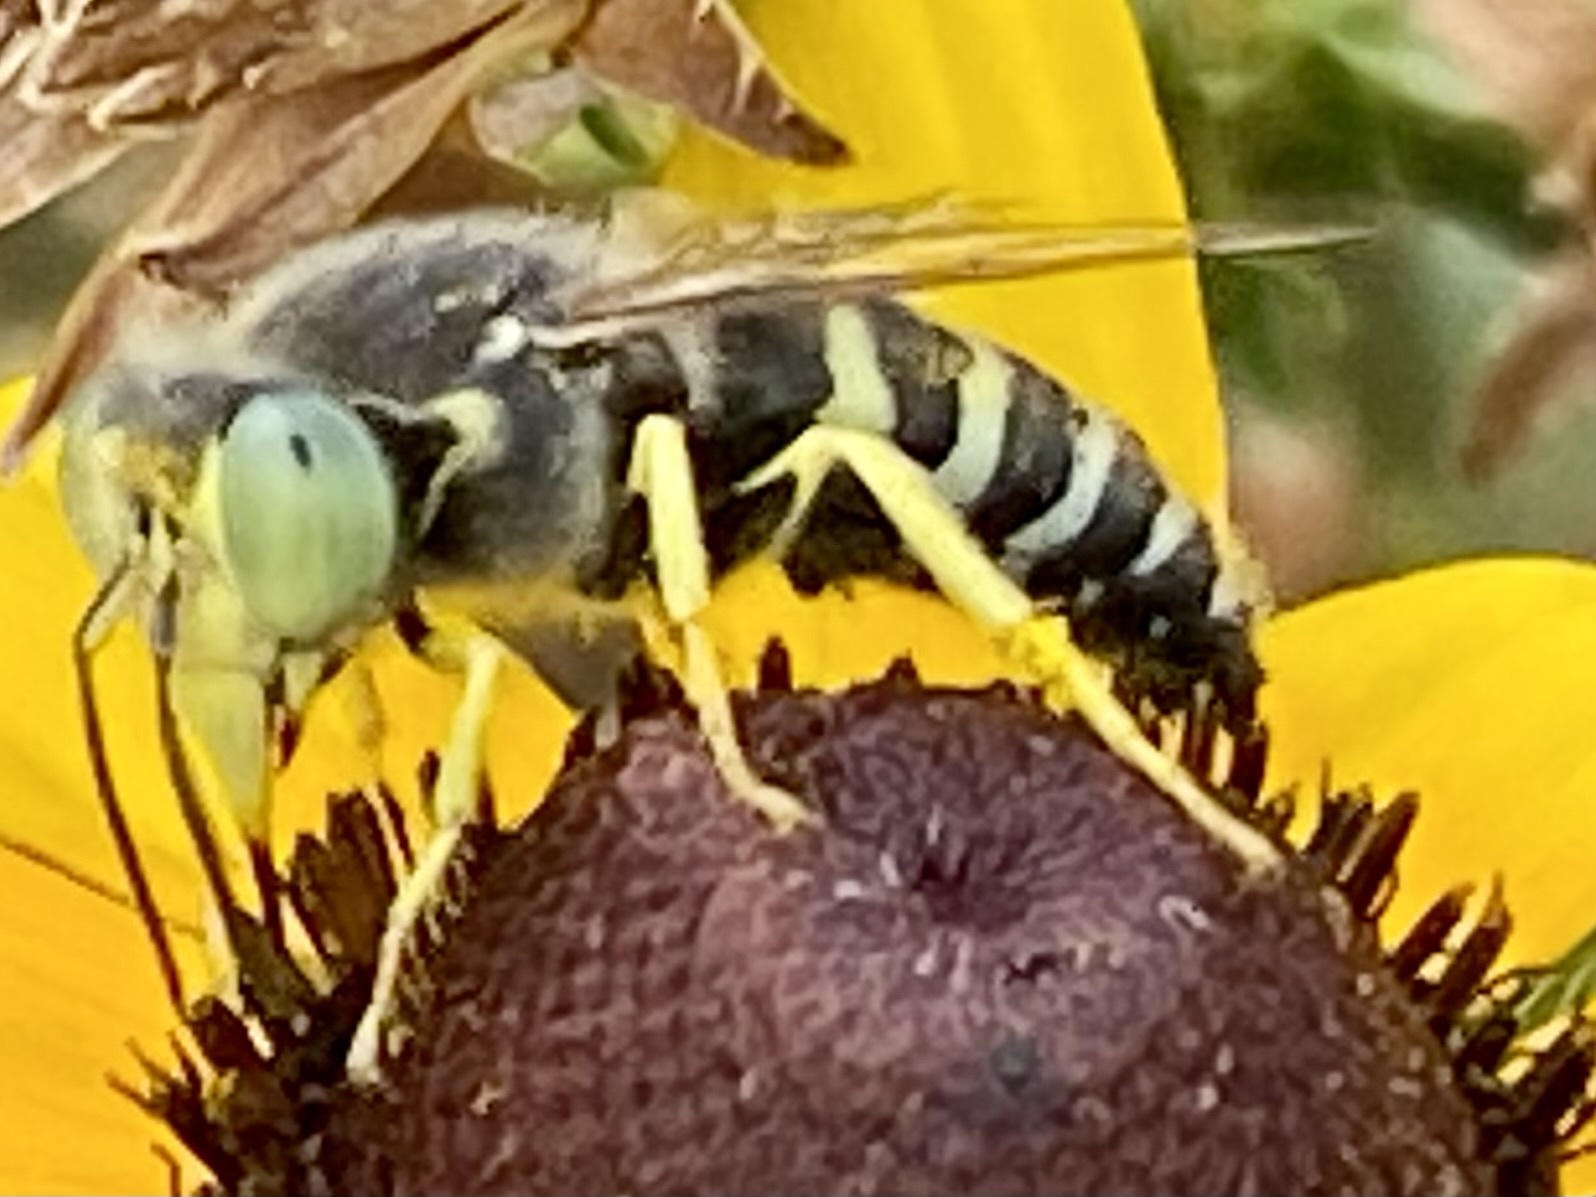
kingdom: Animalia
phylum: Arthropoda
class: Insecta
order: Hymenoptera
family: Crabronidae
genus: Bembix
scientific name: Bembix americana
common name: American sand wasp
